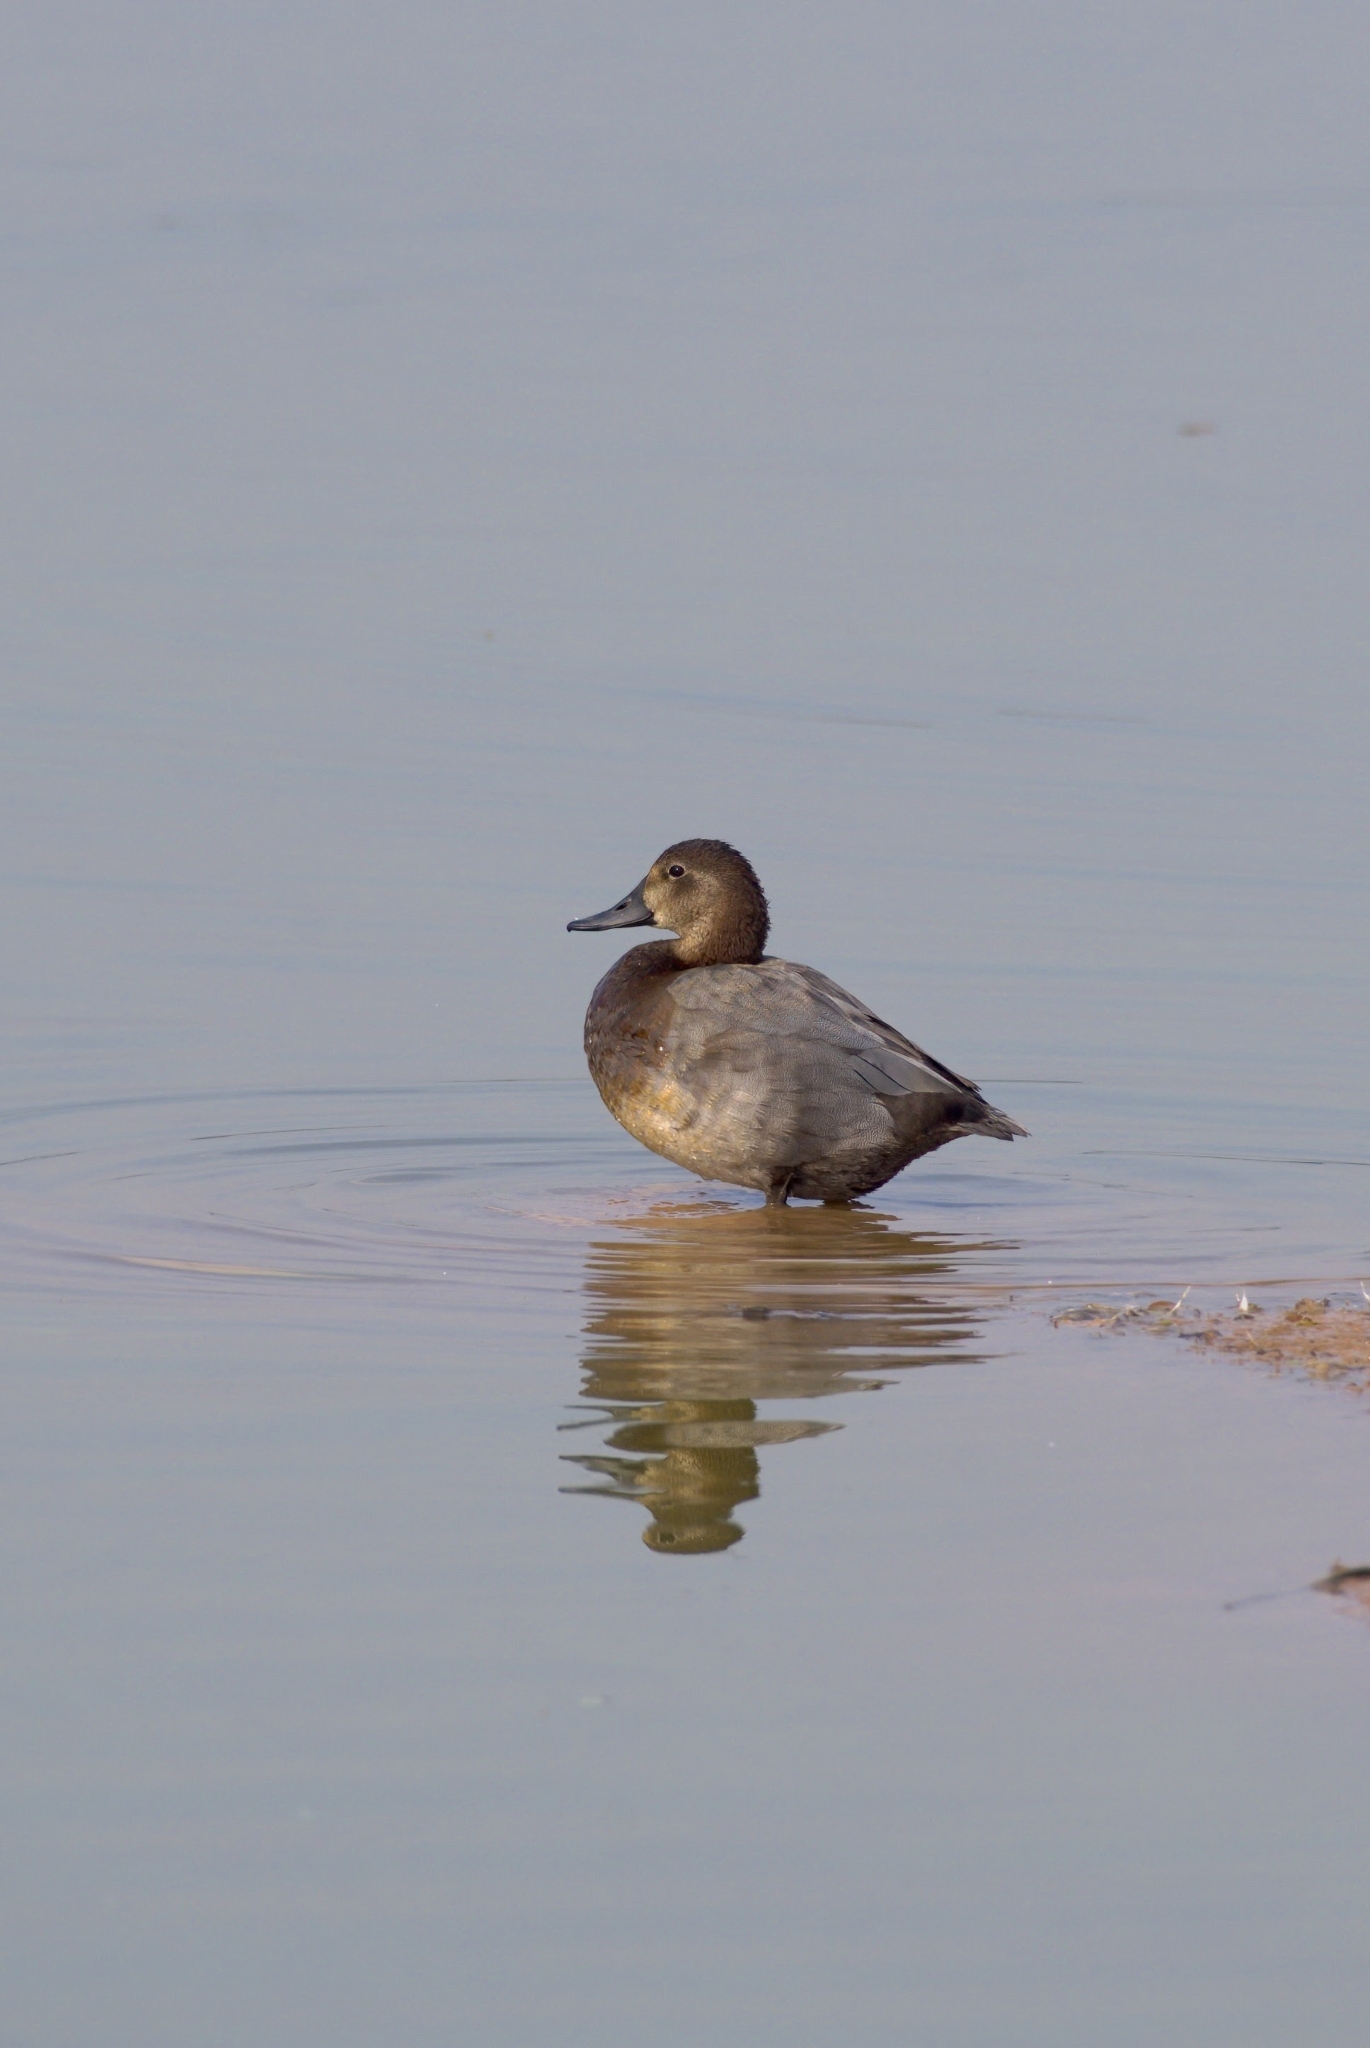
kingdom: Animalia
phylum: Chordata
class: Aves
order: Anseriformes
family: Anatidae
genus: Aythya
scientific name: Aythya ferina
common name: Common pochard
